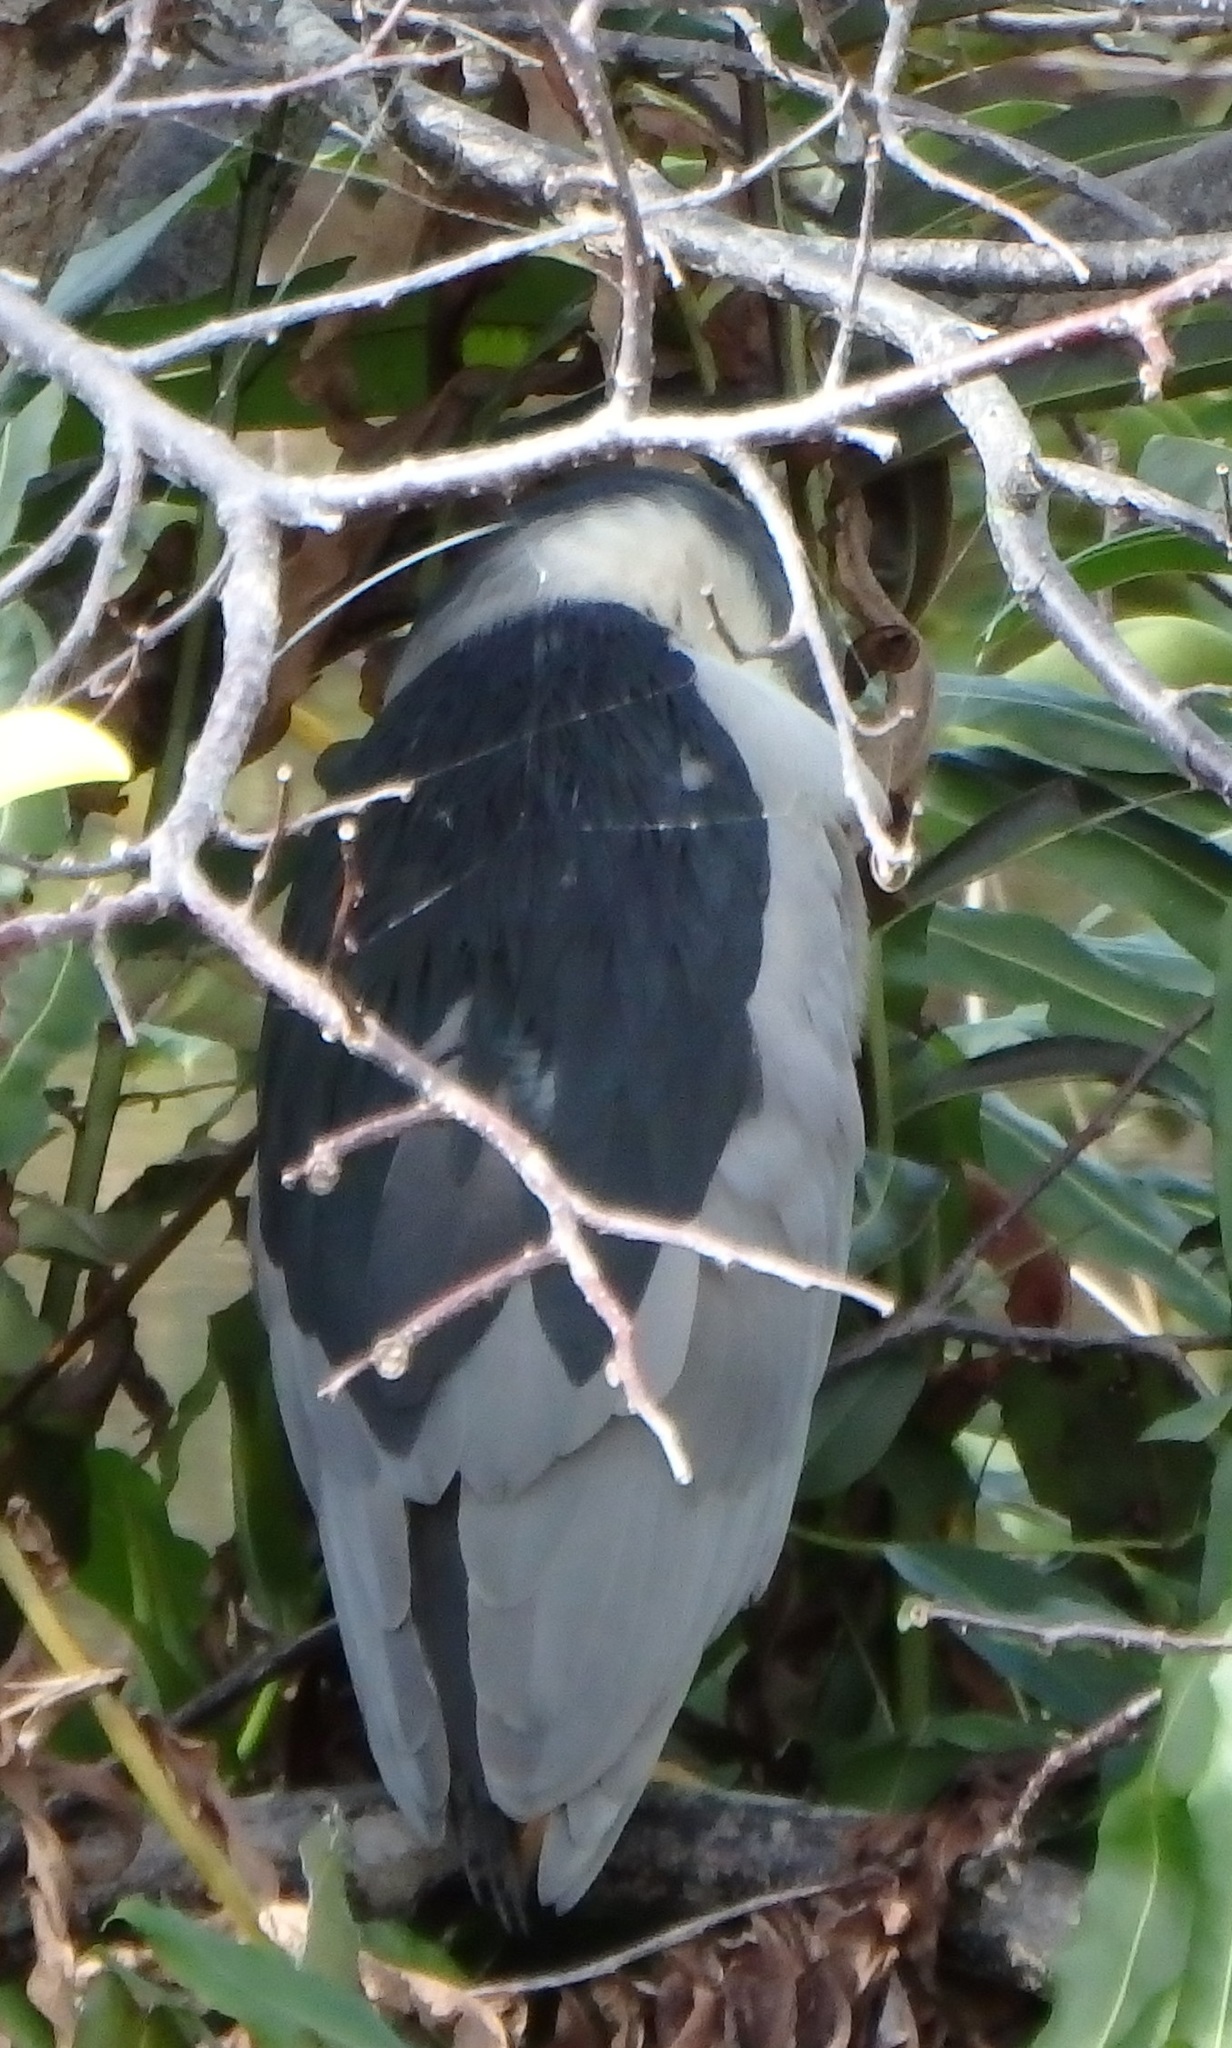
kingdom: Animalia
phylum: Chordata
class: Aves
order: Pelecaniformes
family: Ardeidae
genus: Nycticorax
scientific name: Nycticorax nycticorax
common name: Black-crowned night heron
